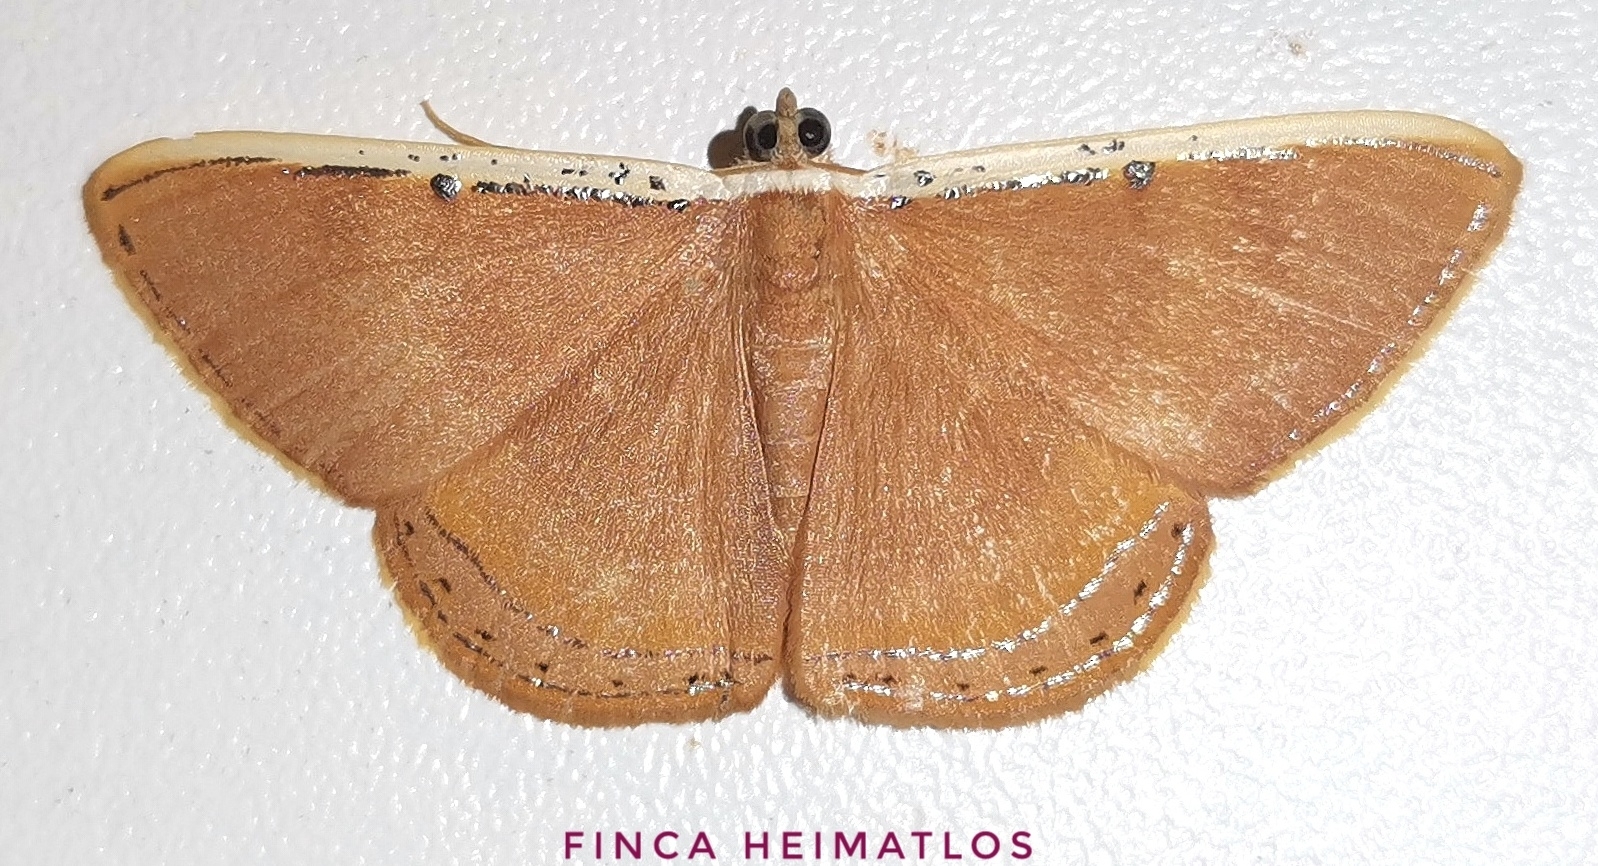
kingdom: Animalia
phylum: Arthropoda
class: Insecta
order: Lepidoptera
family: Geometridae
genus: Palyas
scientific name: Palyas micacearia
